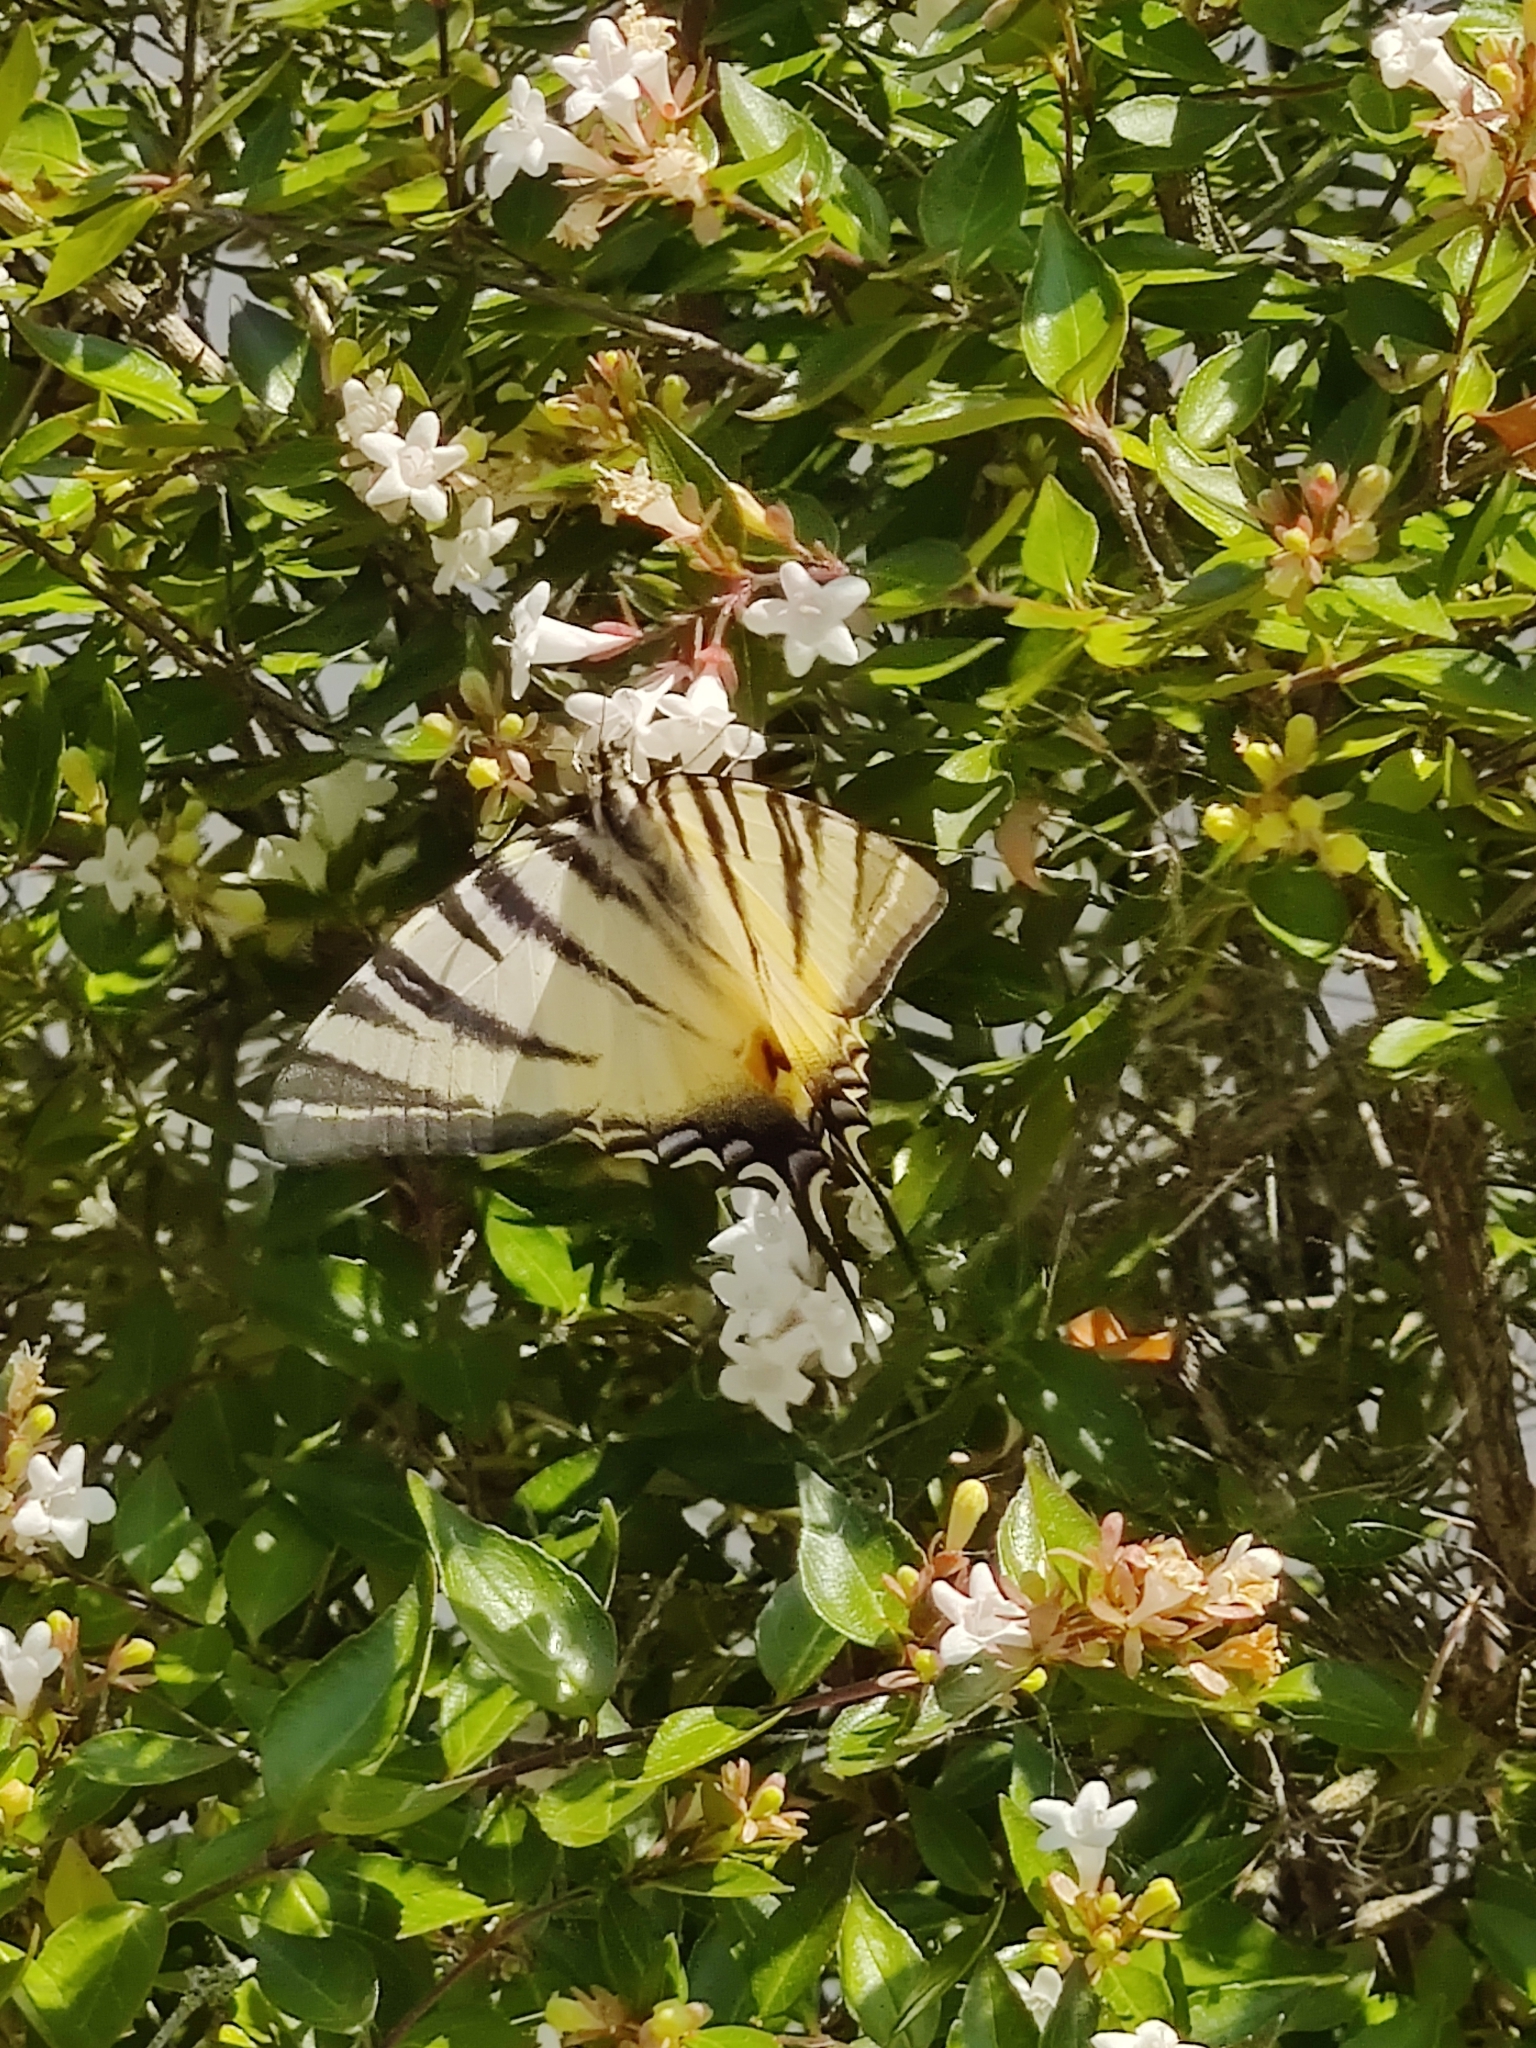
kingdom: Animalia
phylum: Arthropoda
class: Insecta
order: Lepidoptera
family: Papilionidae
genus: Iphiclides
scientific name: Iphiclides podalirius
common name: Scarce swallowtail
